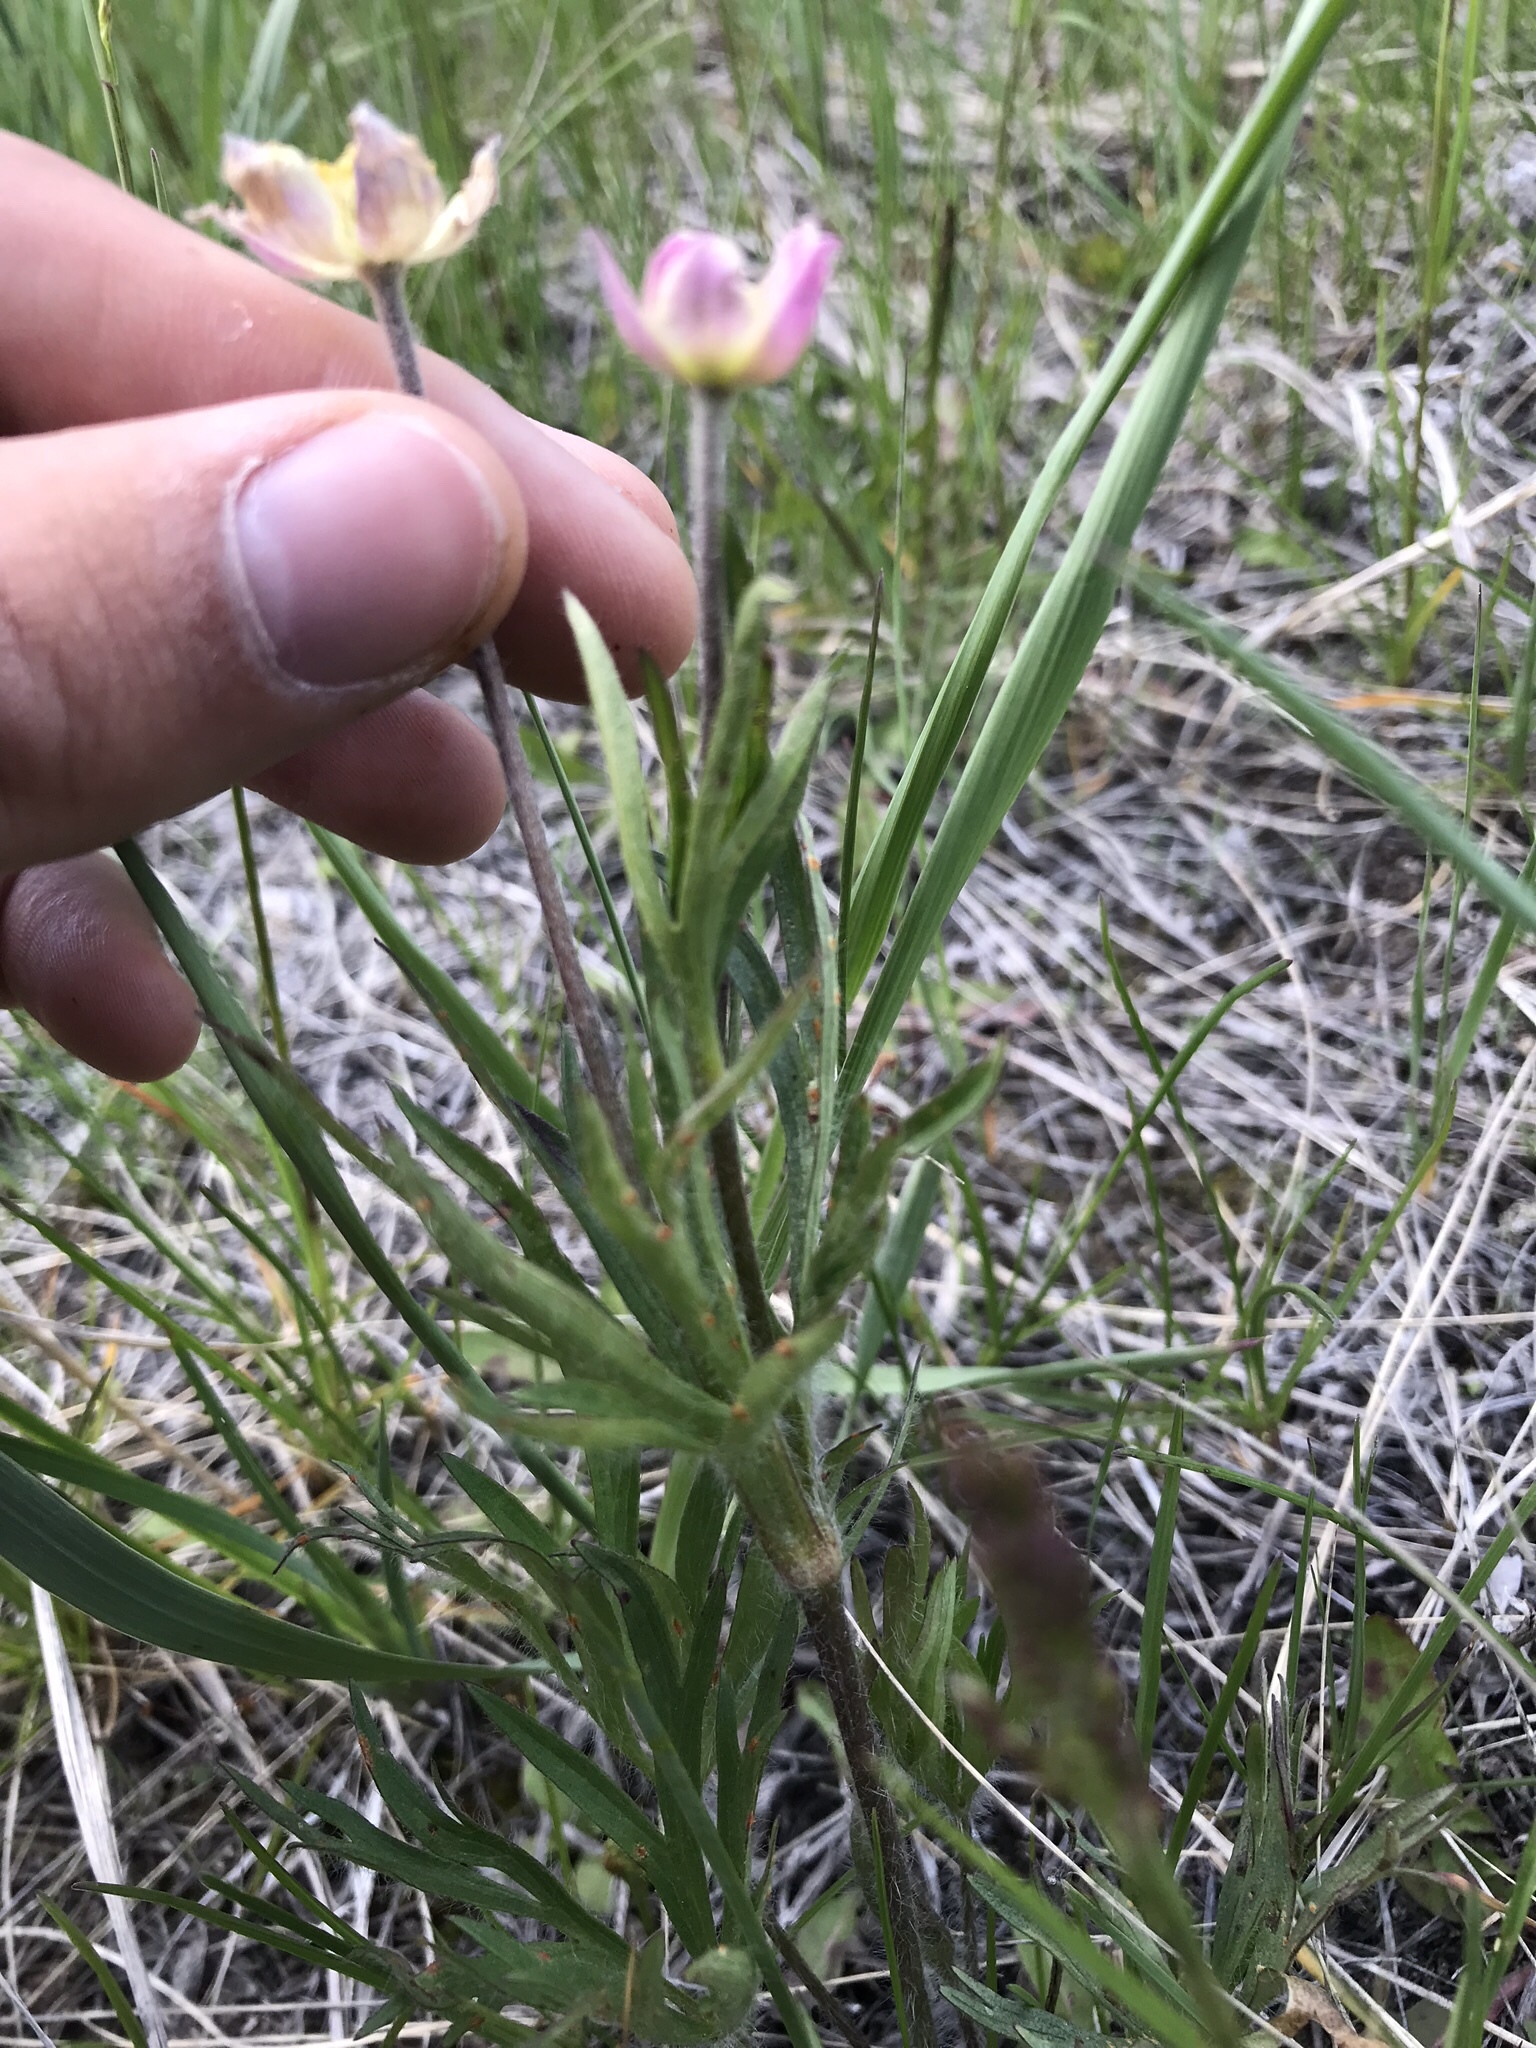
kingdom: Plantae
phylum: Tracheophyta
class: Magnoliopsida
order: Ranunculales
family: Ranunculaceae
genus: Anemone
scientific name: Anemone multifida
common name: Bird's-foot anemone
